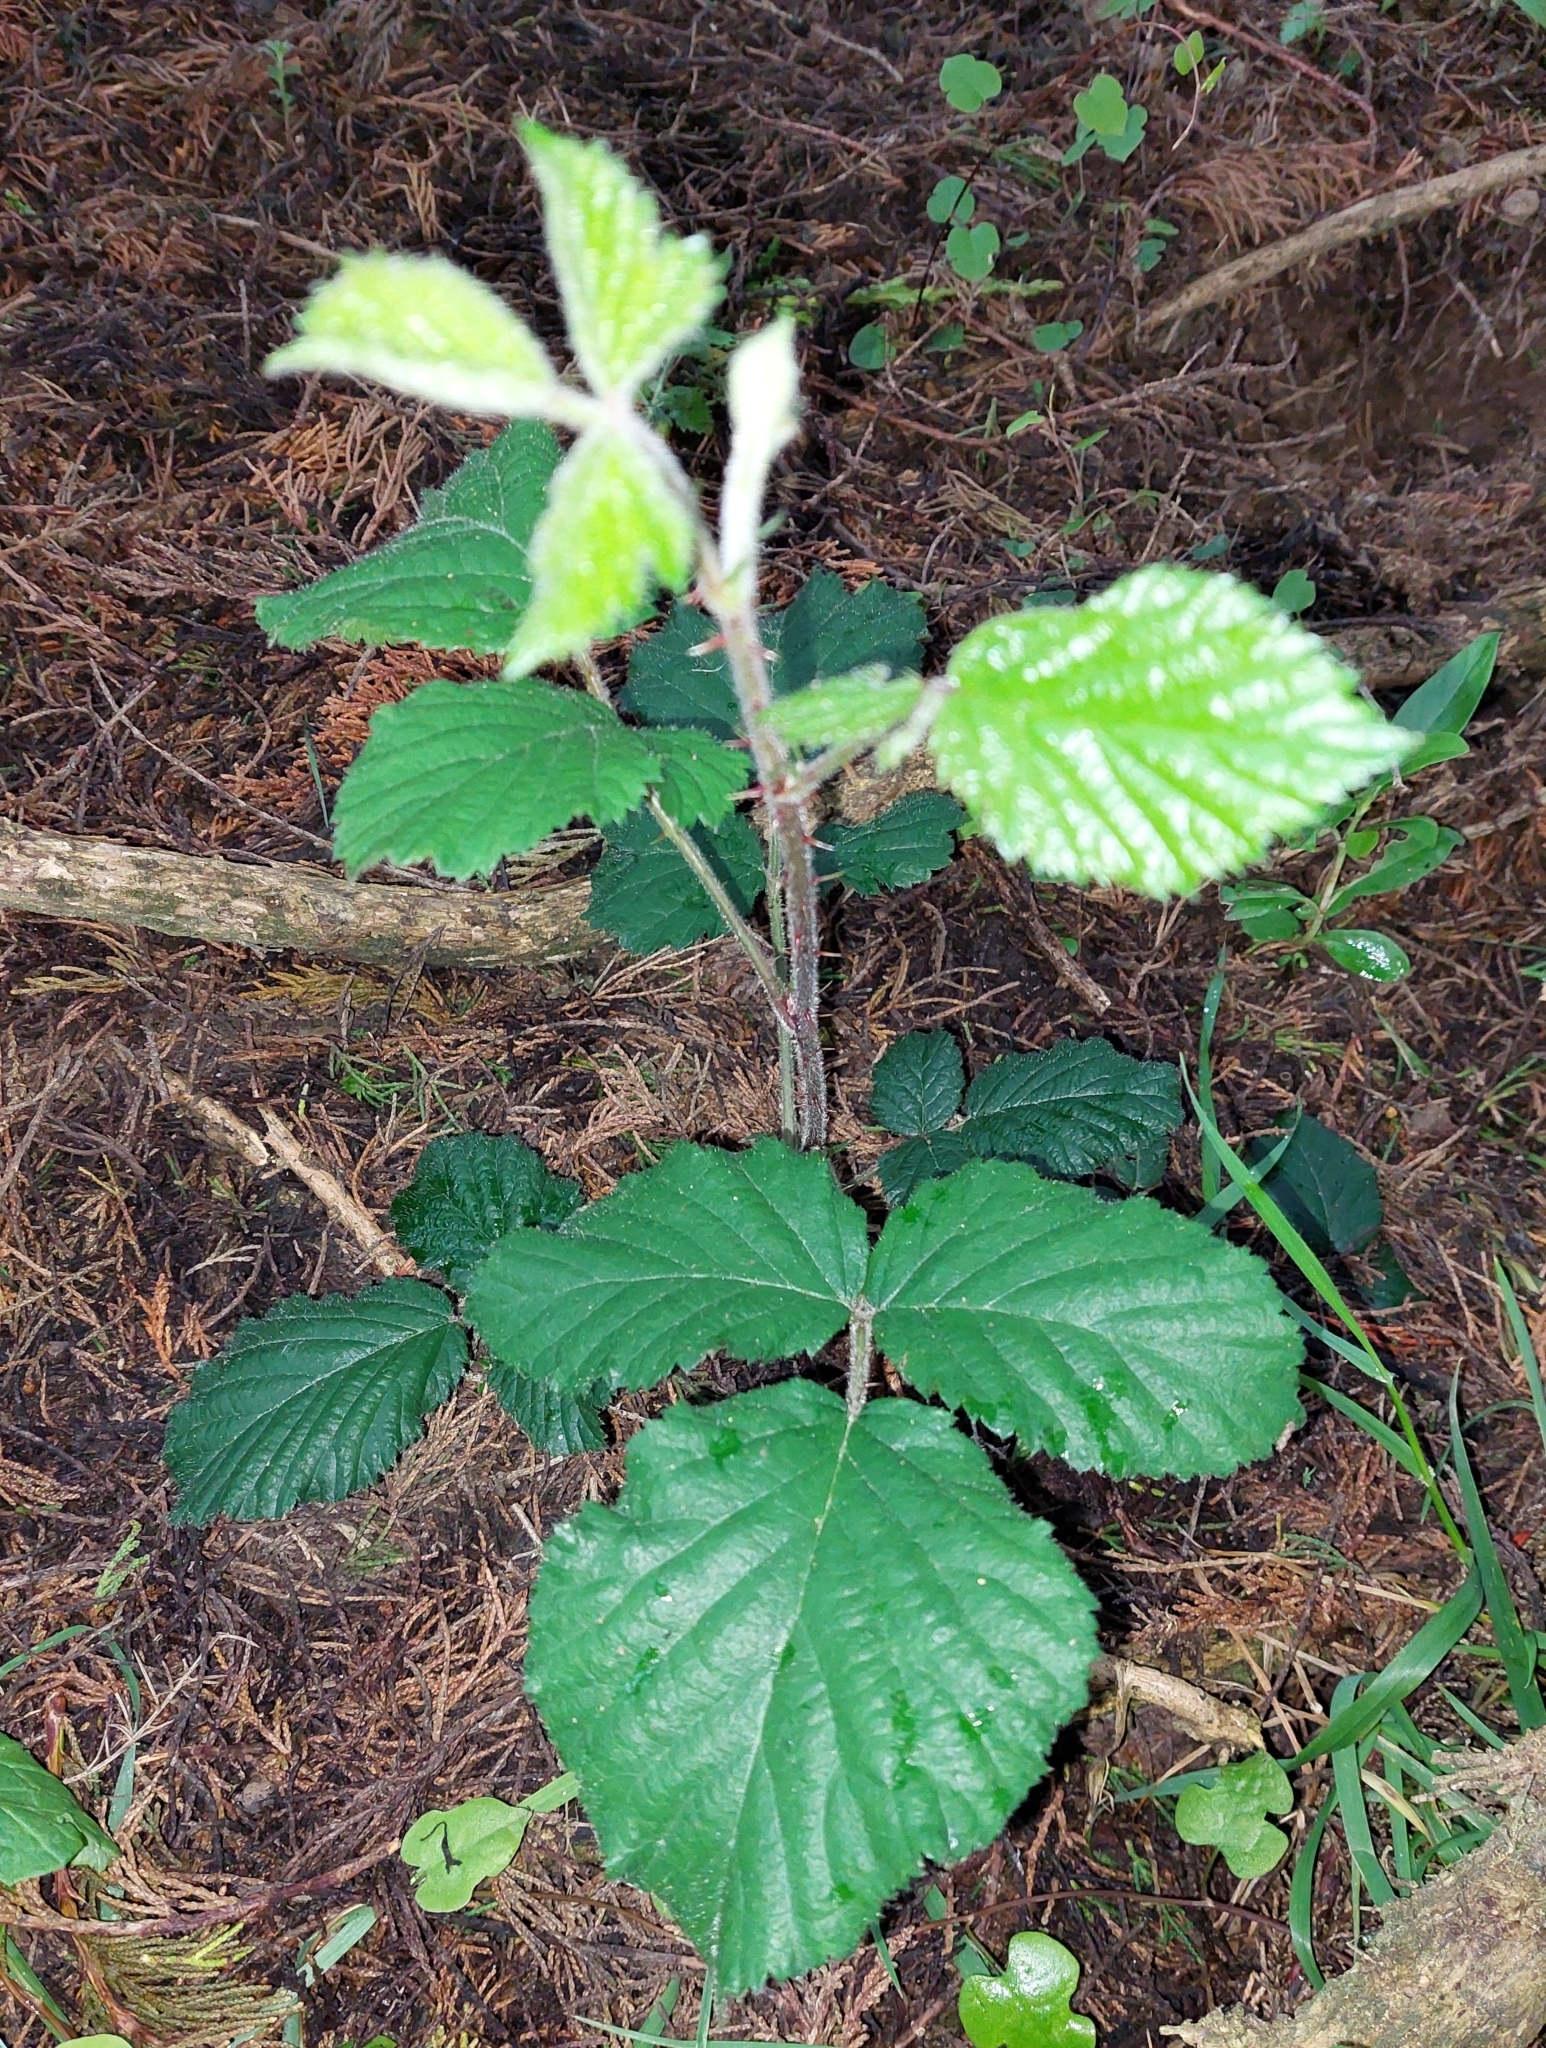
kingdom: Plantae
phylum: Tracheophyta
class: Magnoliopsida
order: Rosales
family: Rosaceae
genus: Rubus
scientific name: Rubus fruticosus
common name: Blackberry, bramble
